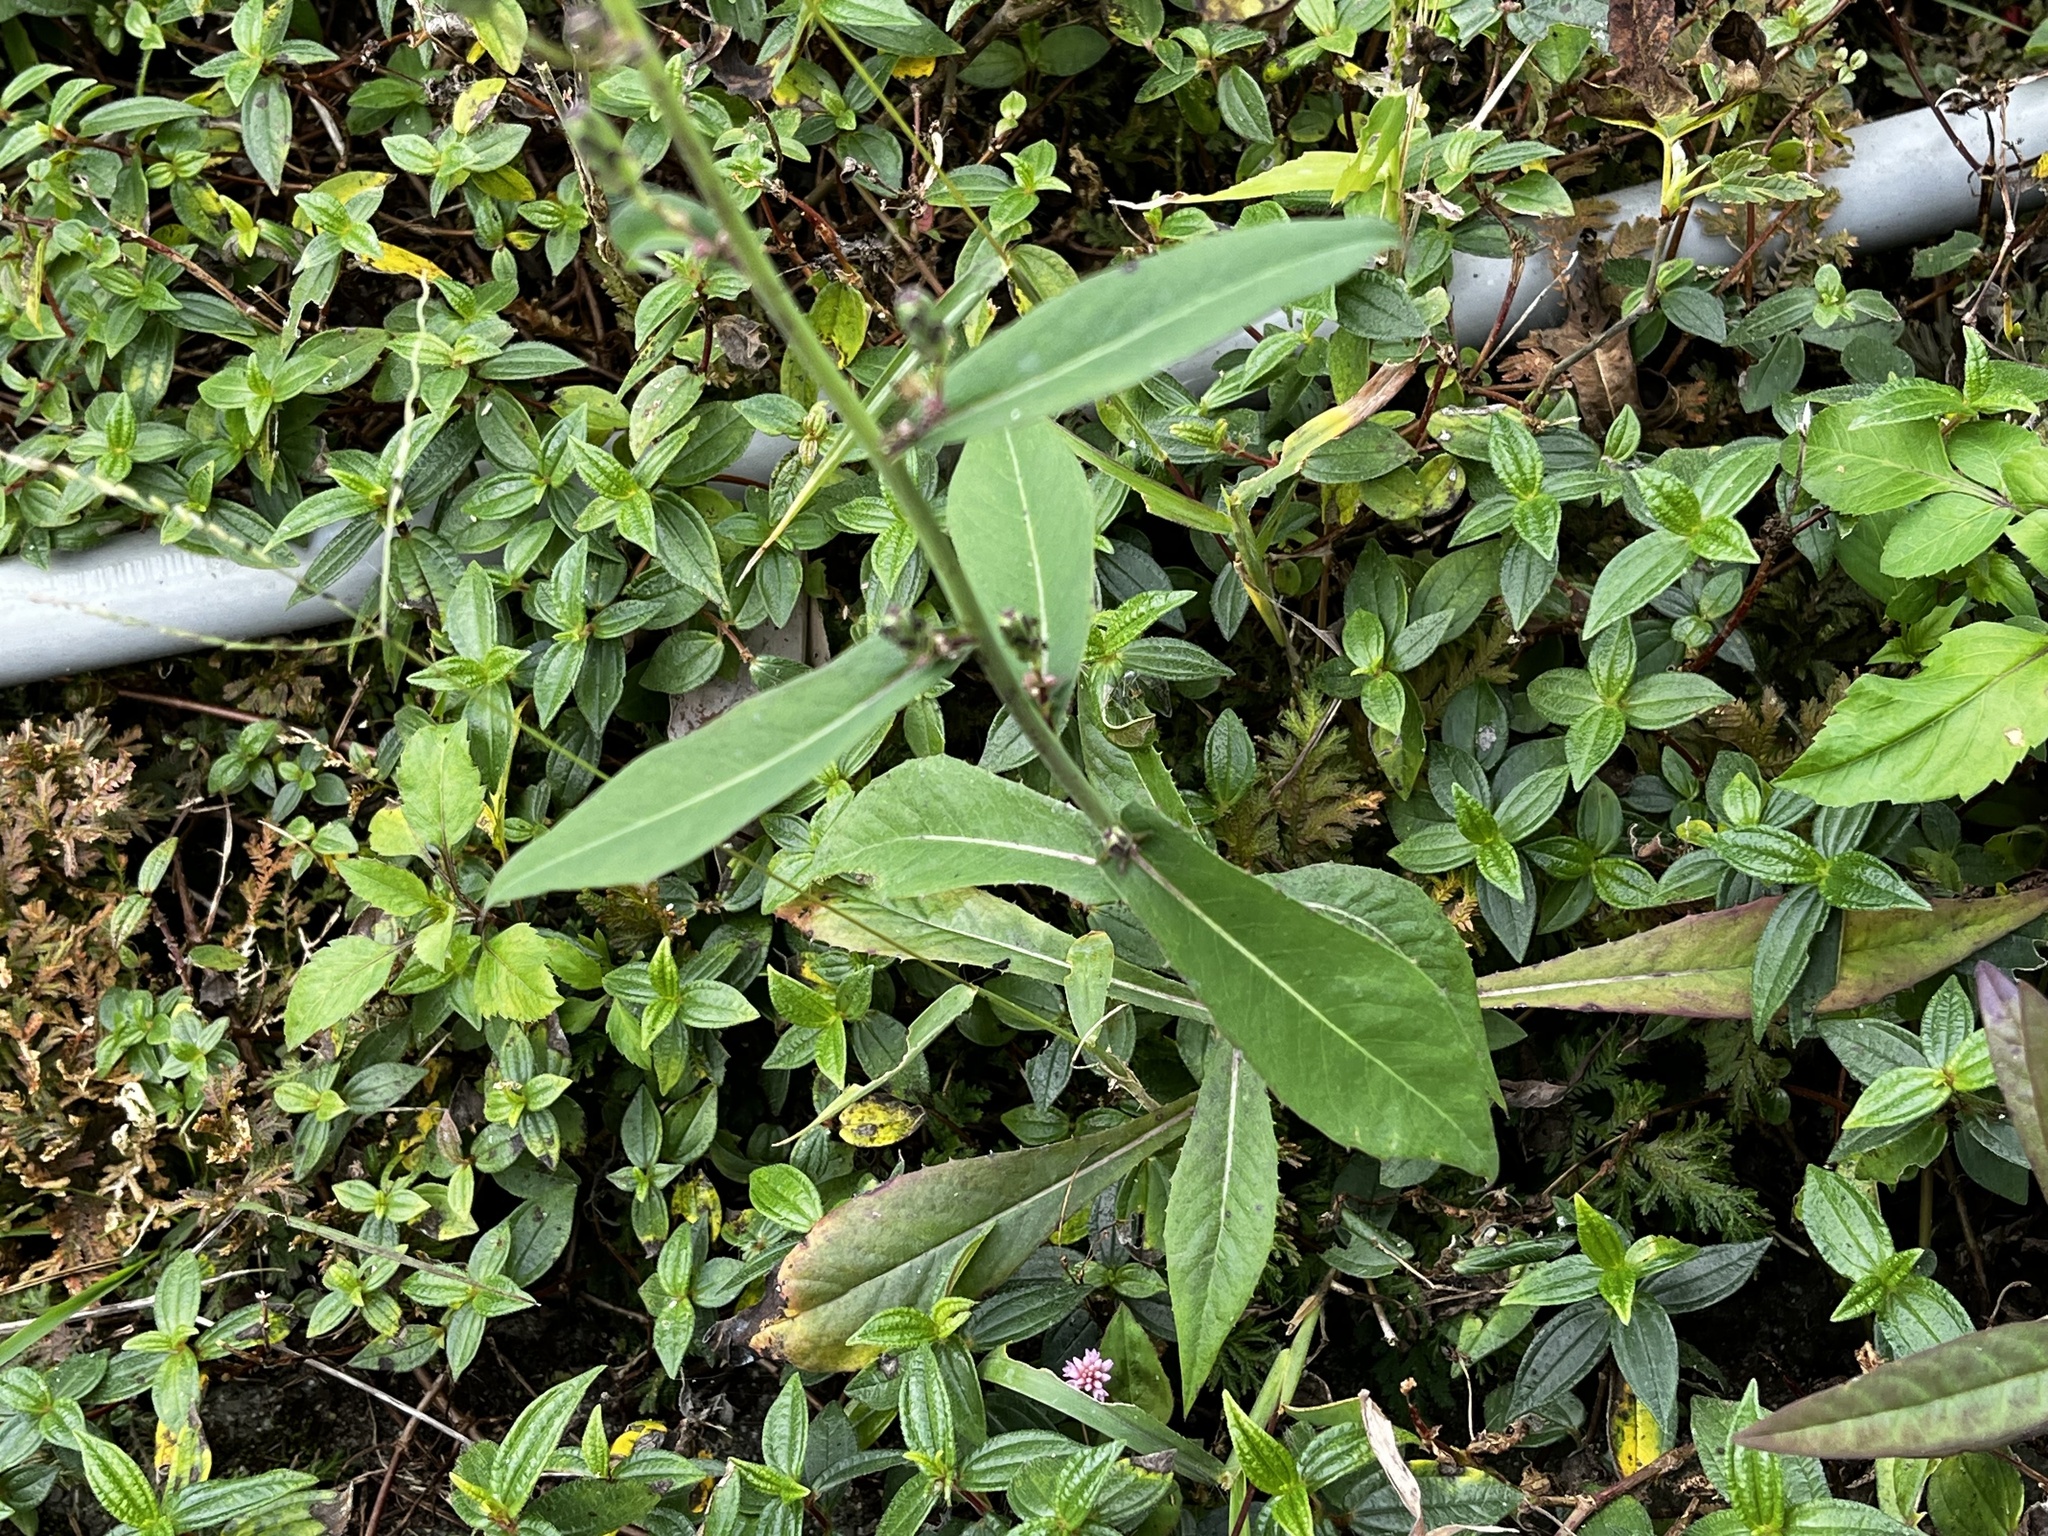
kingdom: Plantae
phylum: Tracheophyta
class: Magnoliopsida
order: Asterales
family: Asteraceae
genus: Lactuca
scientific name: Lactuca indica
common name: Wild lettuce
